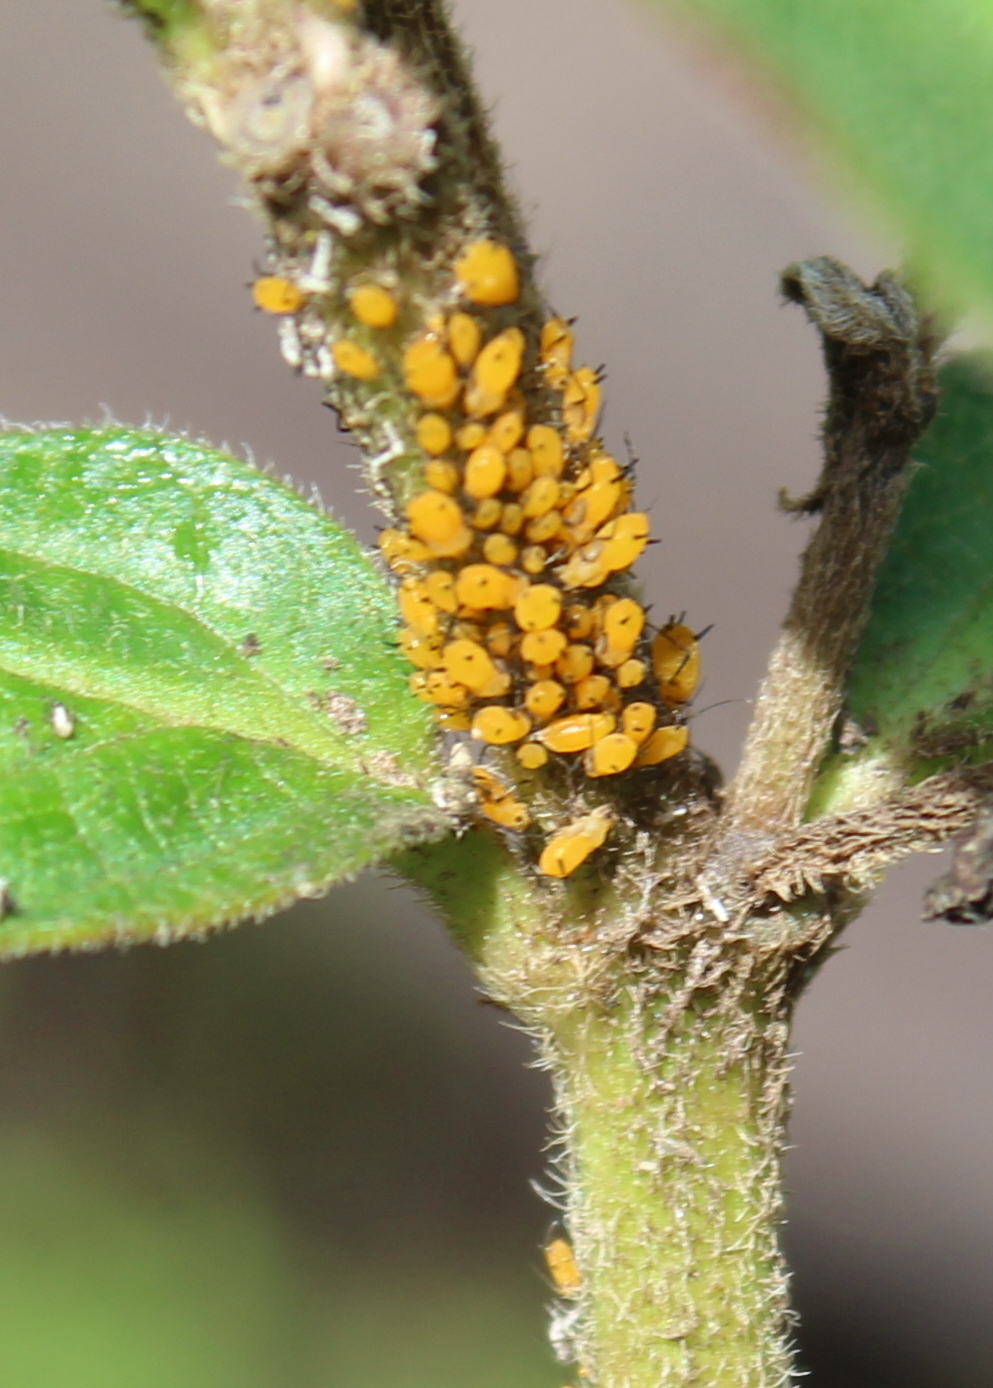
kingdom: Animalia
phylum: Arthropoda
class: Insecta
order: Hemiptera
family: Aphididae
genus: Aphis
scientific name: Aphis nerii
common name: Oleander aphid
